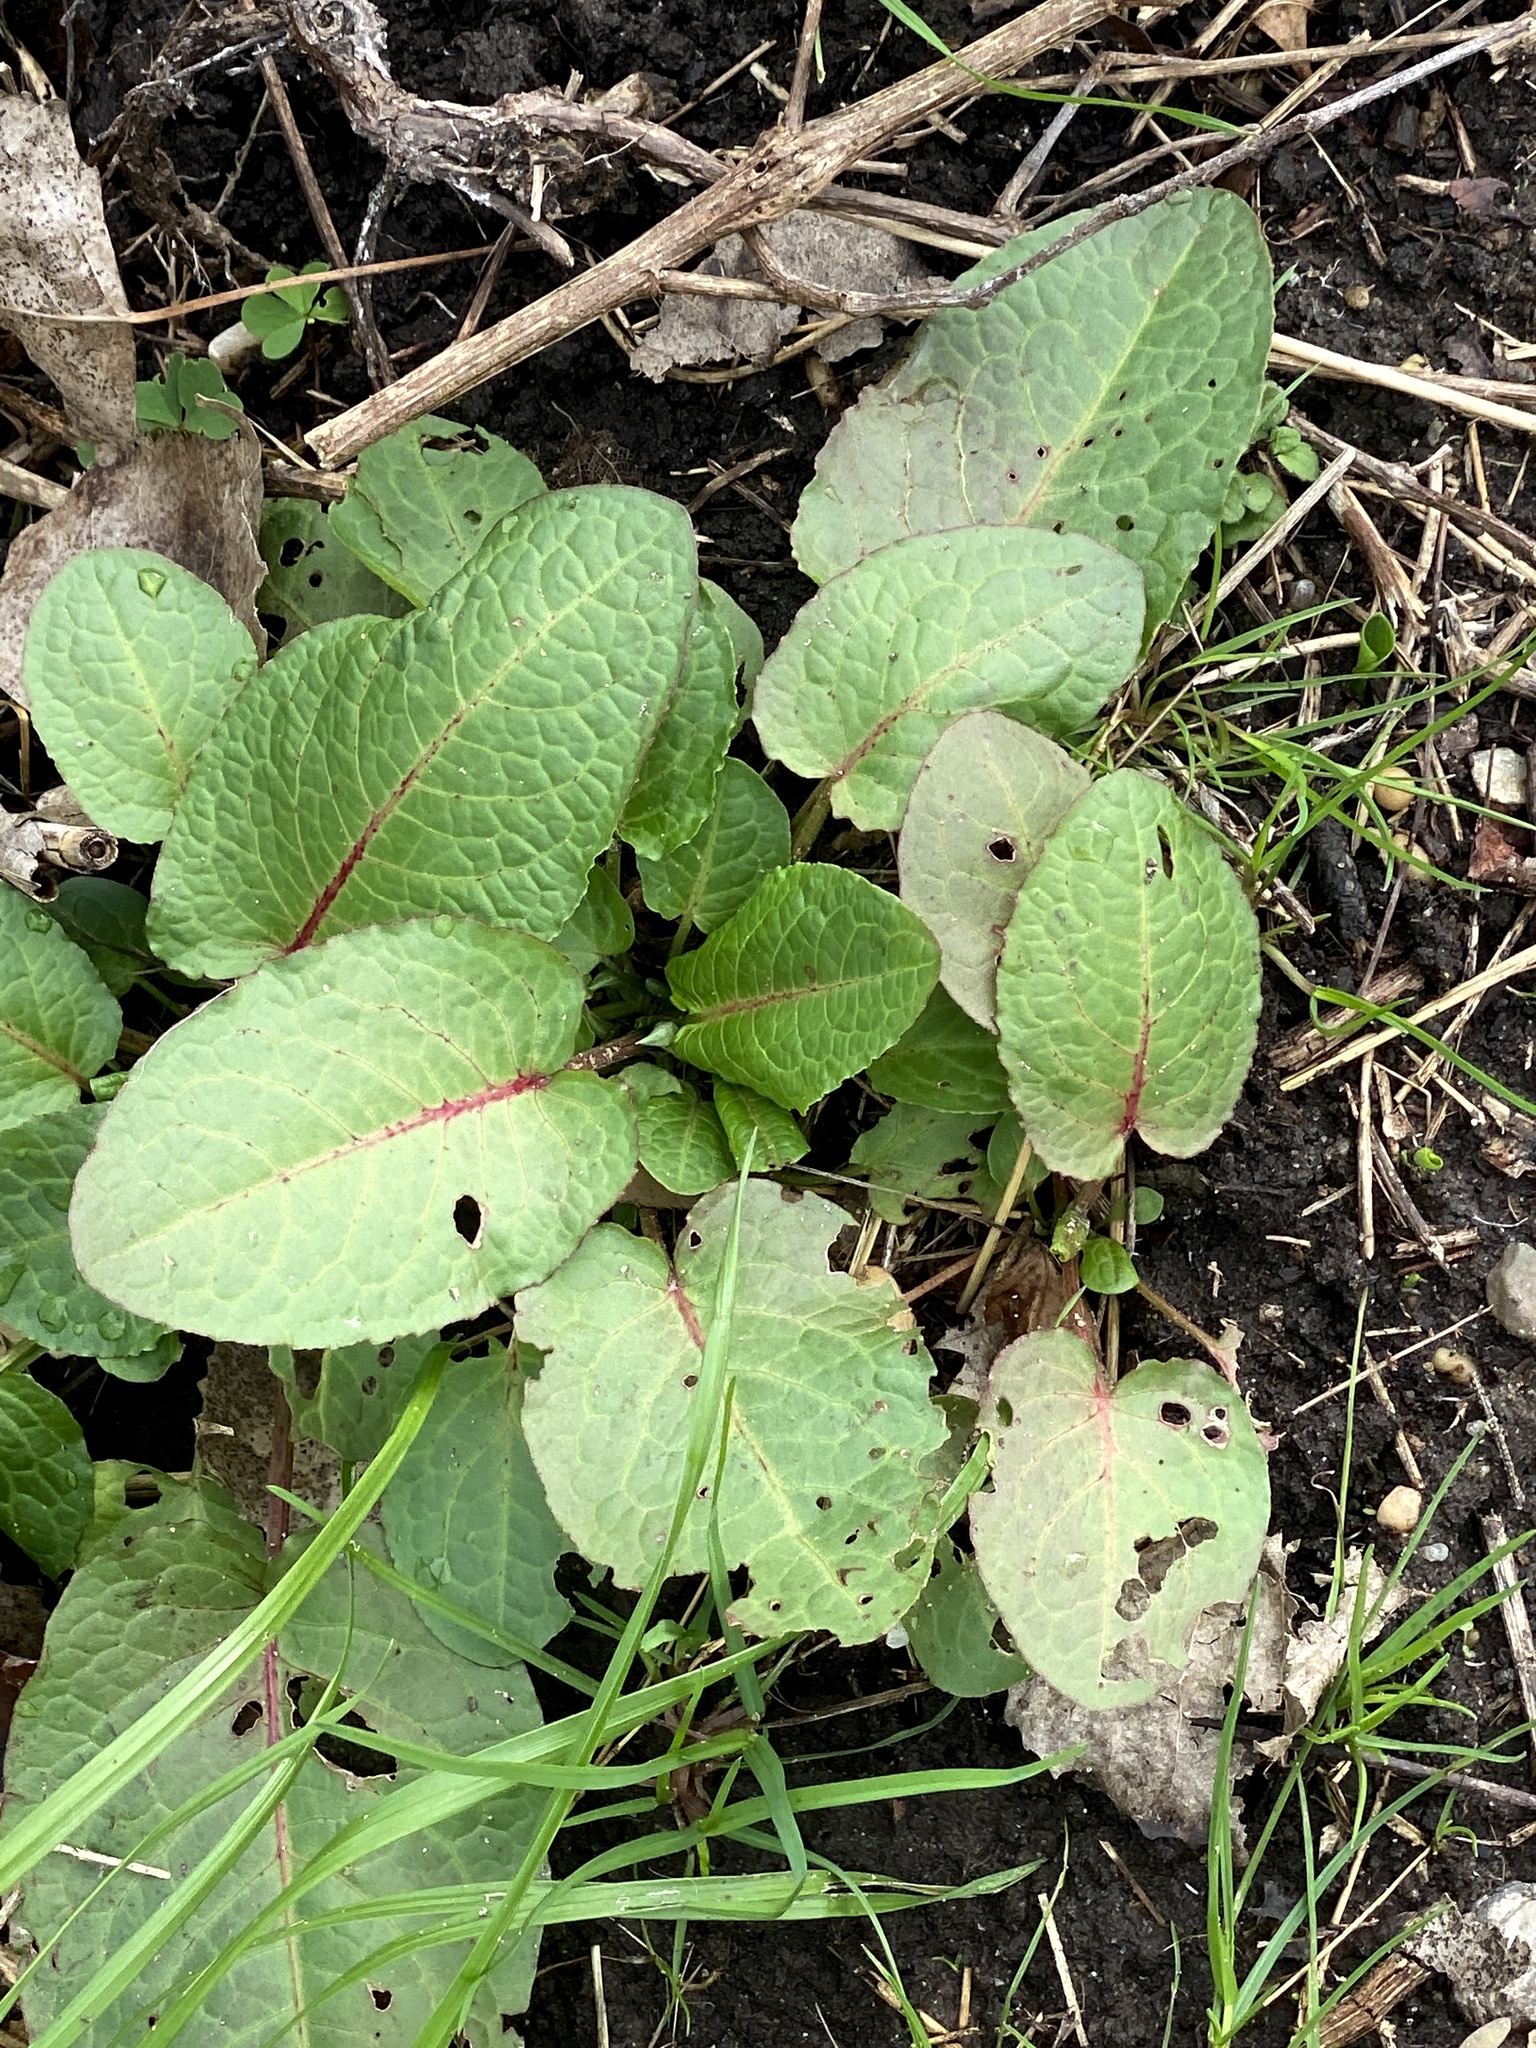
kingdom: Plantae
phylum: Tracheophyta
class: Magnoliopsida
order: Caryophyllales
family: Polygonaceae
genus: Rumex
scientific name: Rumex obtusifolius
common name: Bitter dock
